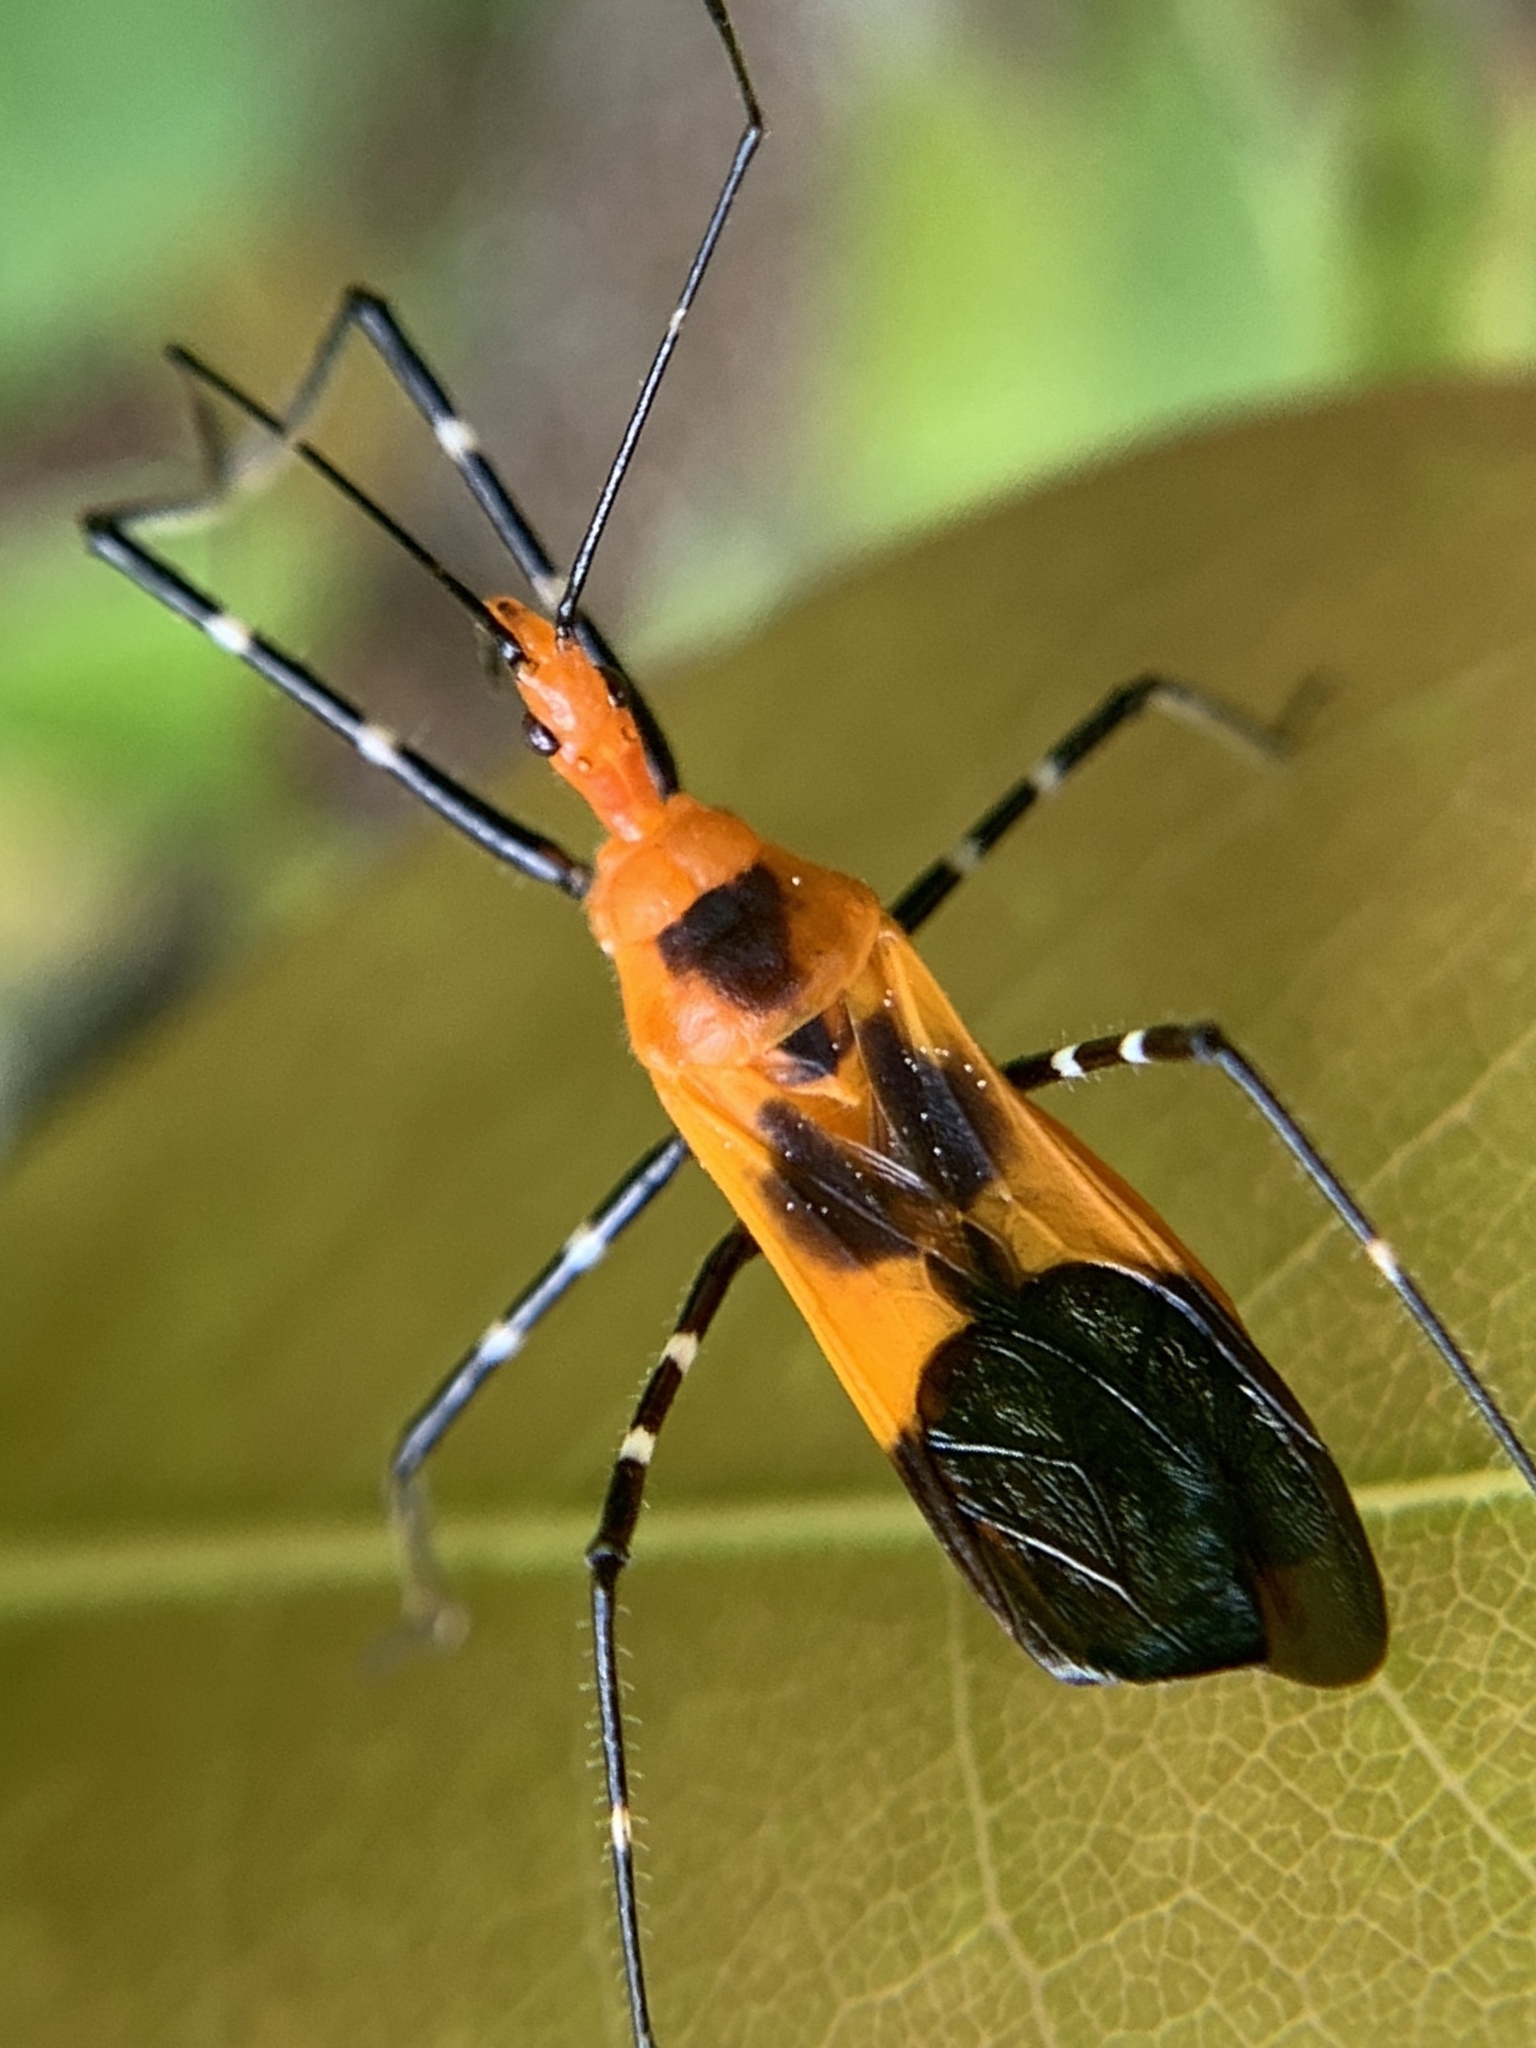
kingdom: Animalia
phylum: Arthropoda
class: Insecta
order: Hemiptera
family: Reduviidae
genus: Zelus
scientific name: Zelus longipes
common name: Milkweed assassin bug
